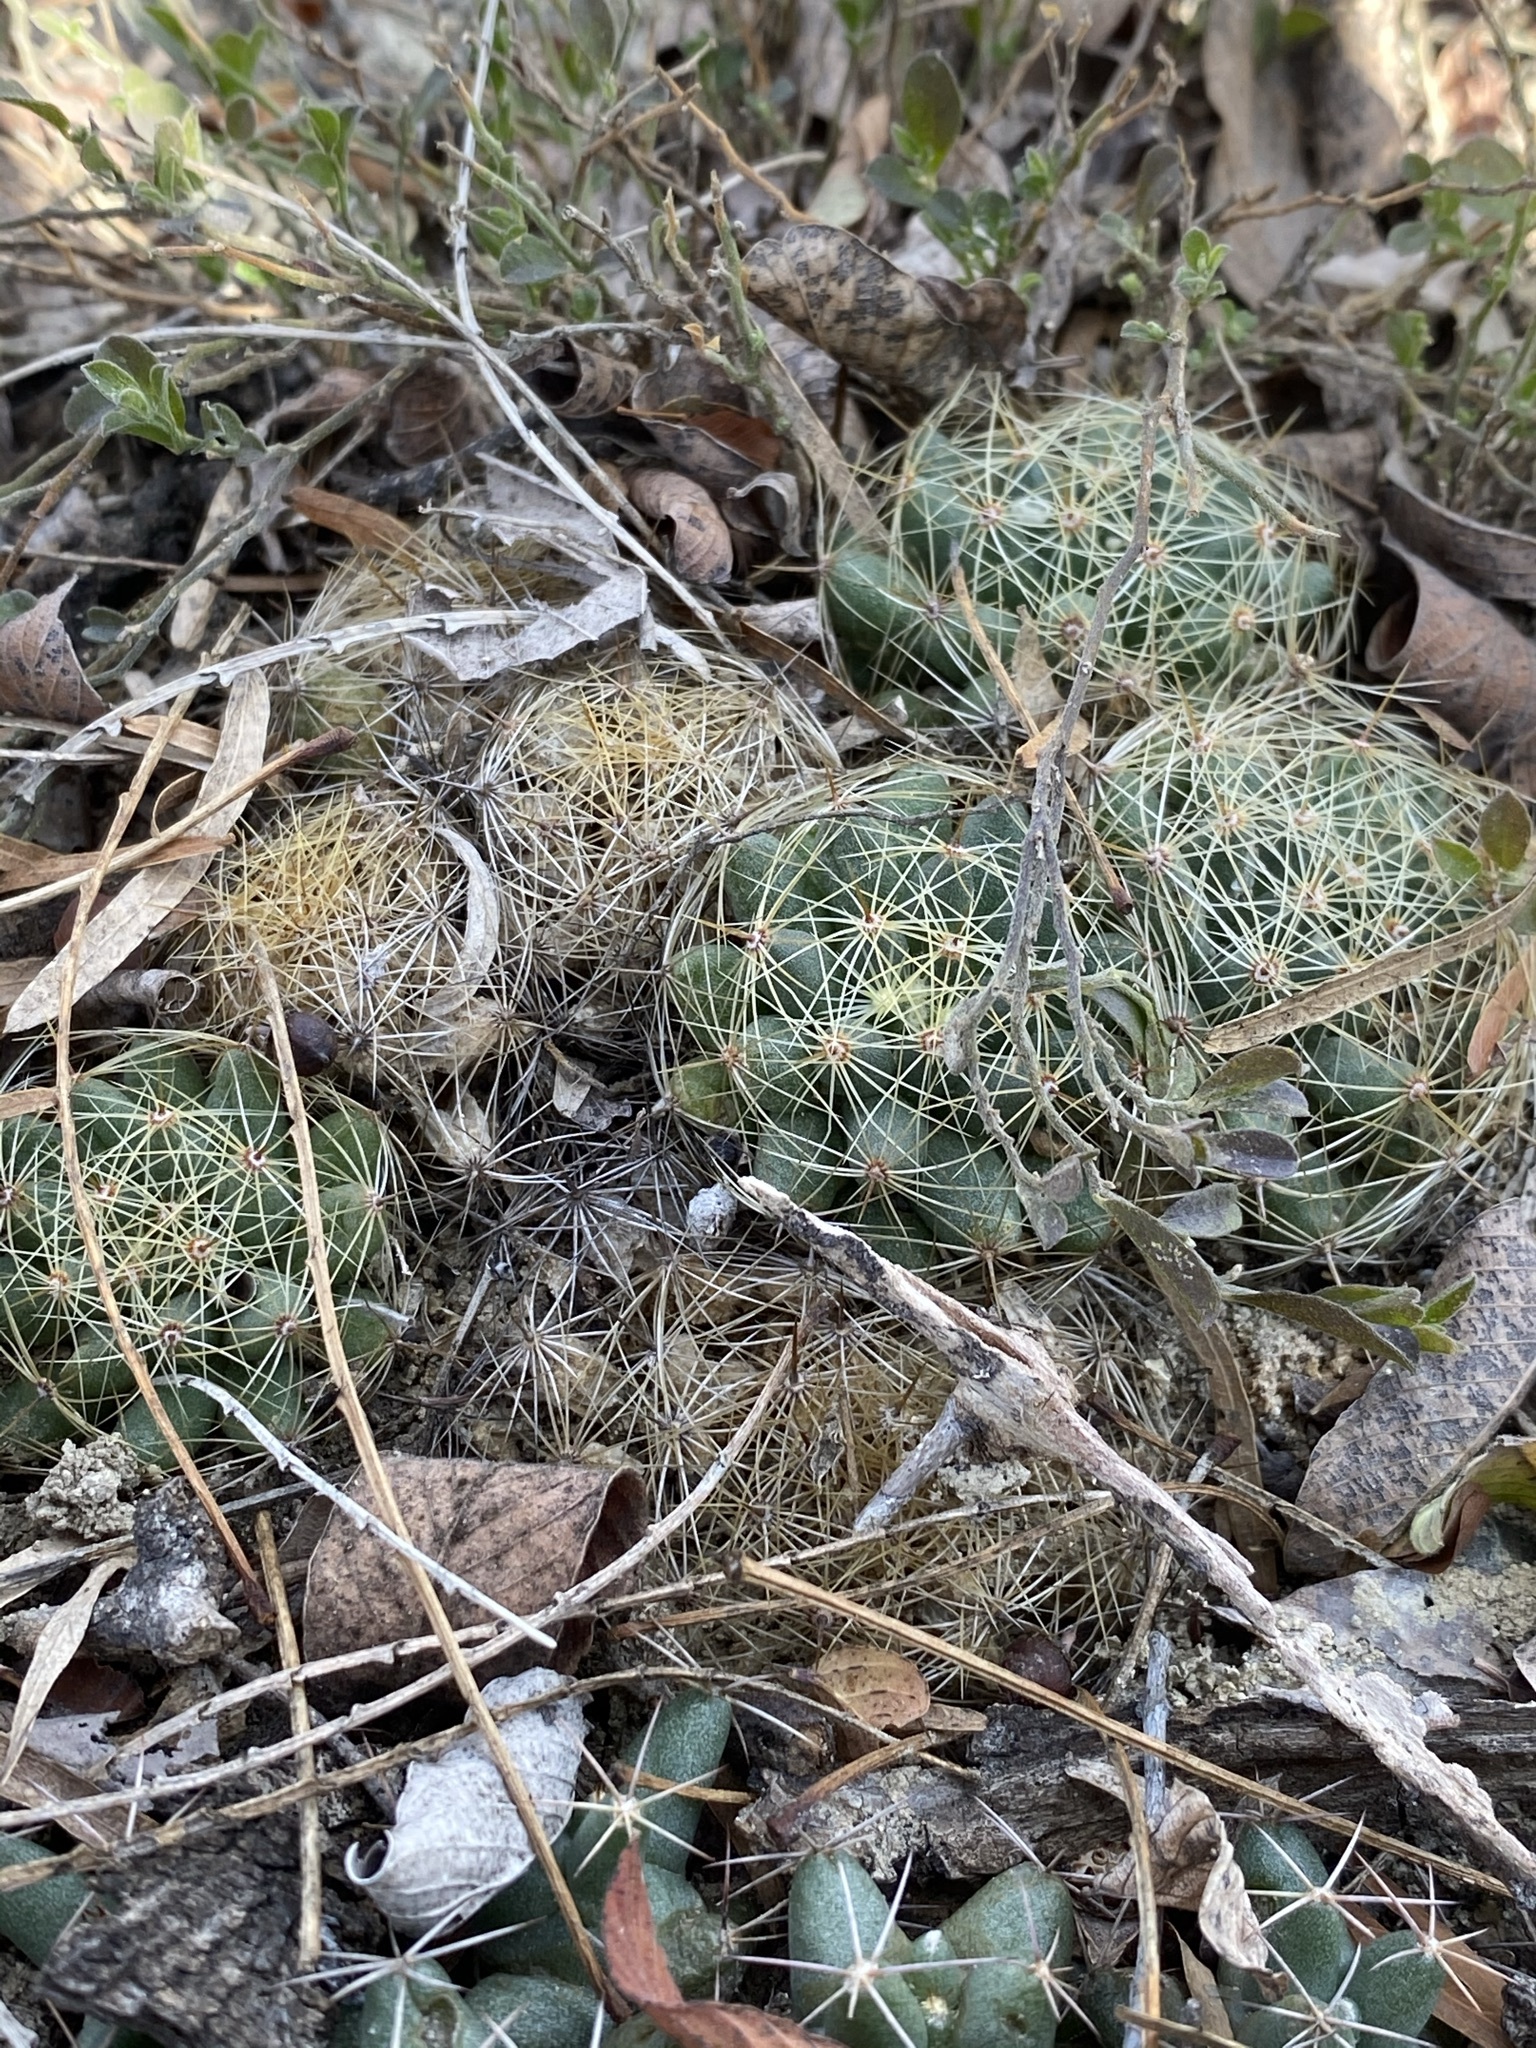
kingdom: Plantae
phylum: Tracheophyta
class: Magnoliopsida
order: Caryophyllales
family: Cactaceae
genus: Mammillaria
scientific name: Mammillaria sphaerica
